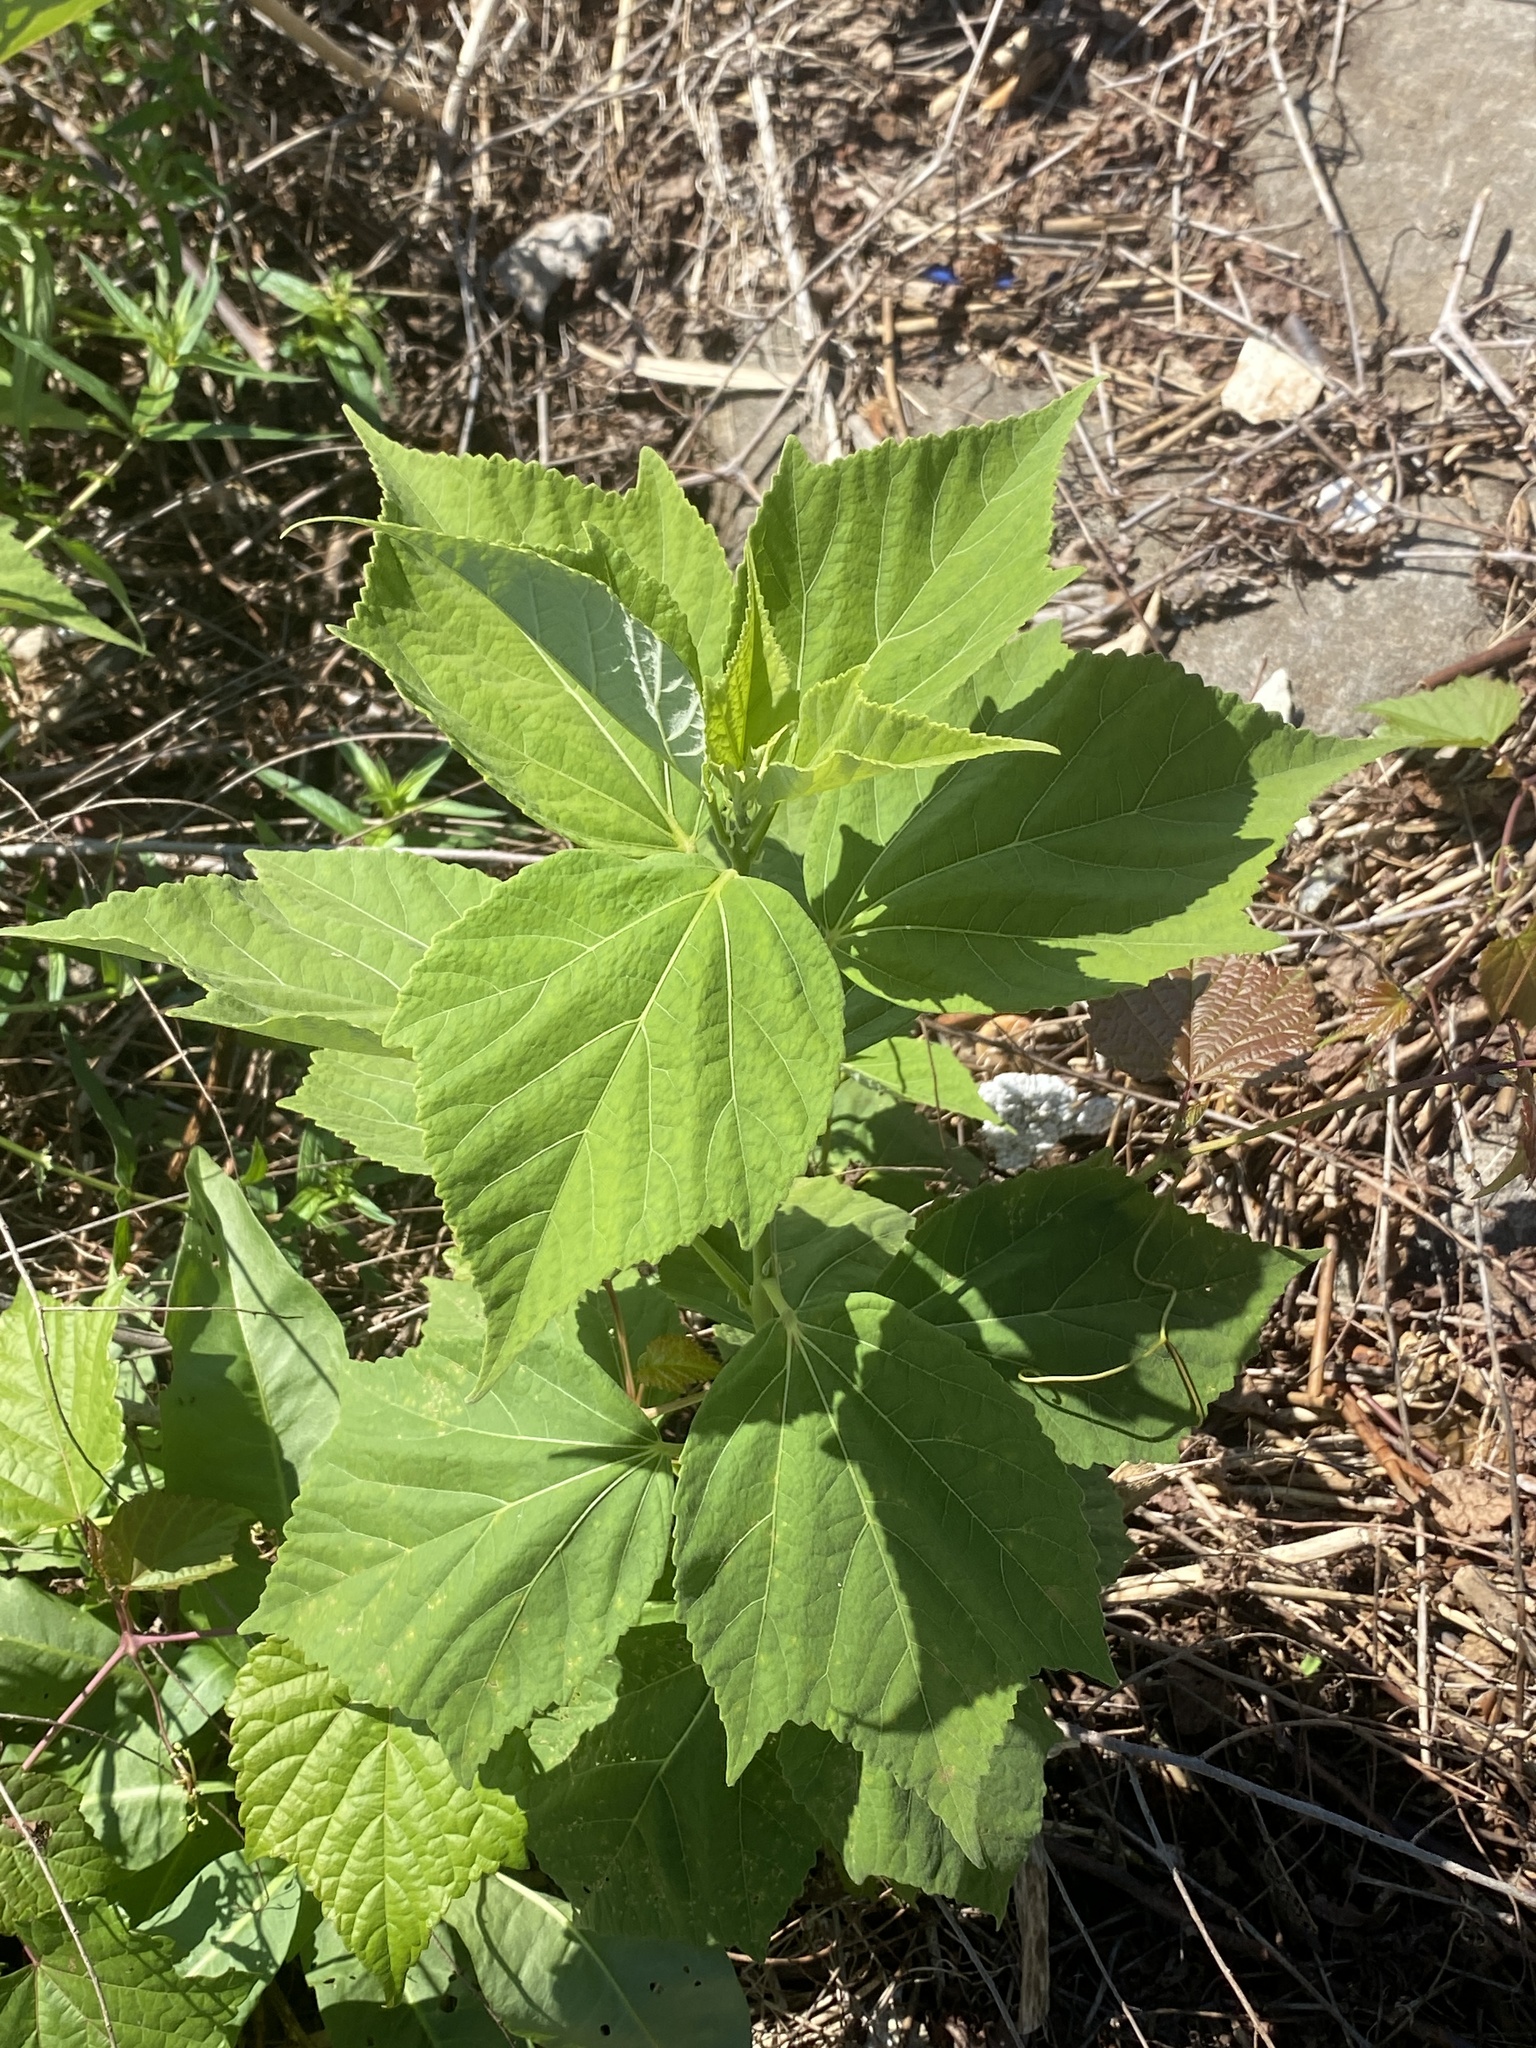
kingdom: Plantae
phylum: Tracheophyta
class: Magnoliopsida
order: Malvales
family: Malvaceae
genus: Hibiscus
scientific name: Hibiscus moscheutos
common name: Common rose-mallow
